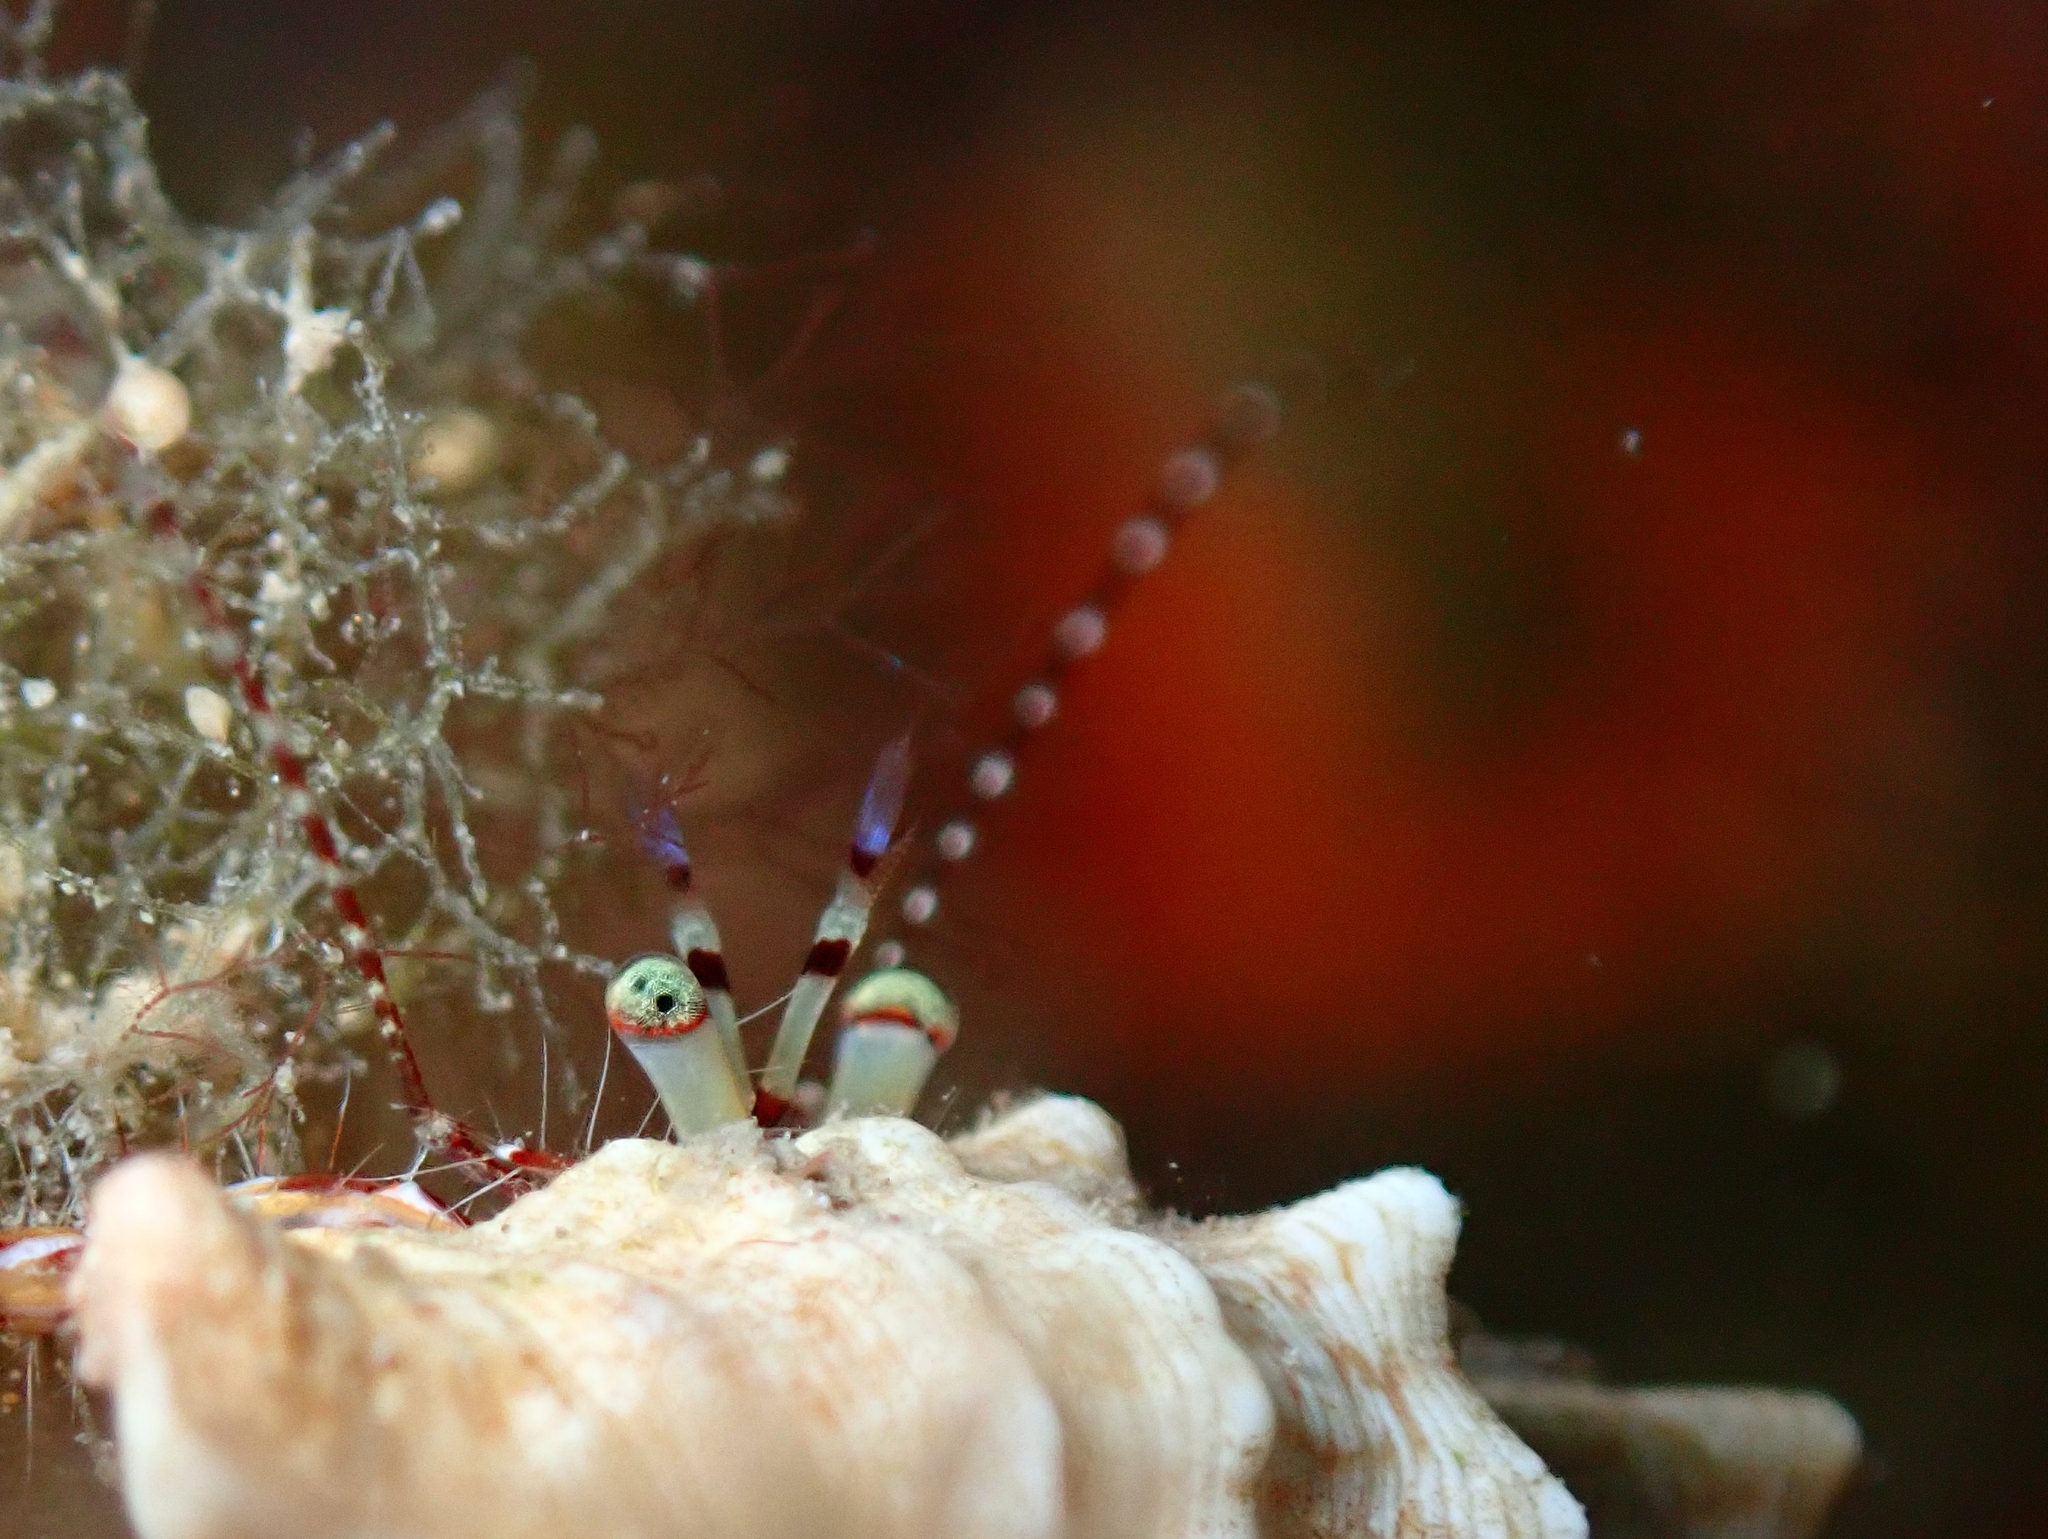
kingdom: Animalia
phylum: Arthropoda
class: Malacostraca
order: Decapoda
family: Paguridae
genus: Pagurus
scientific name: Pagurus anachoretus
